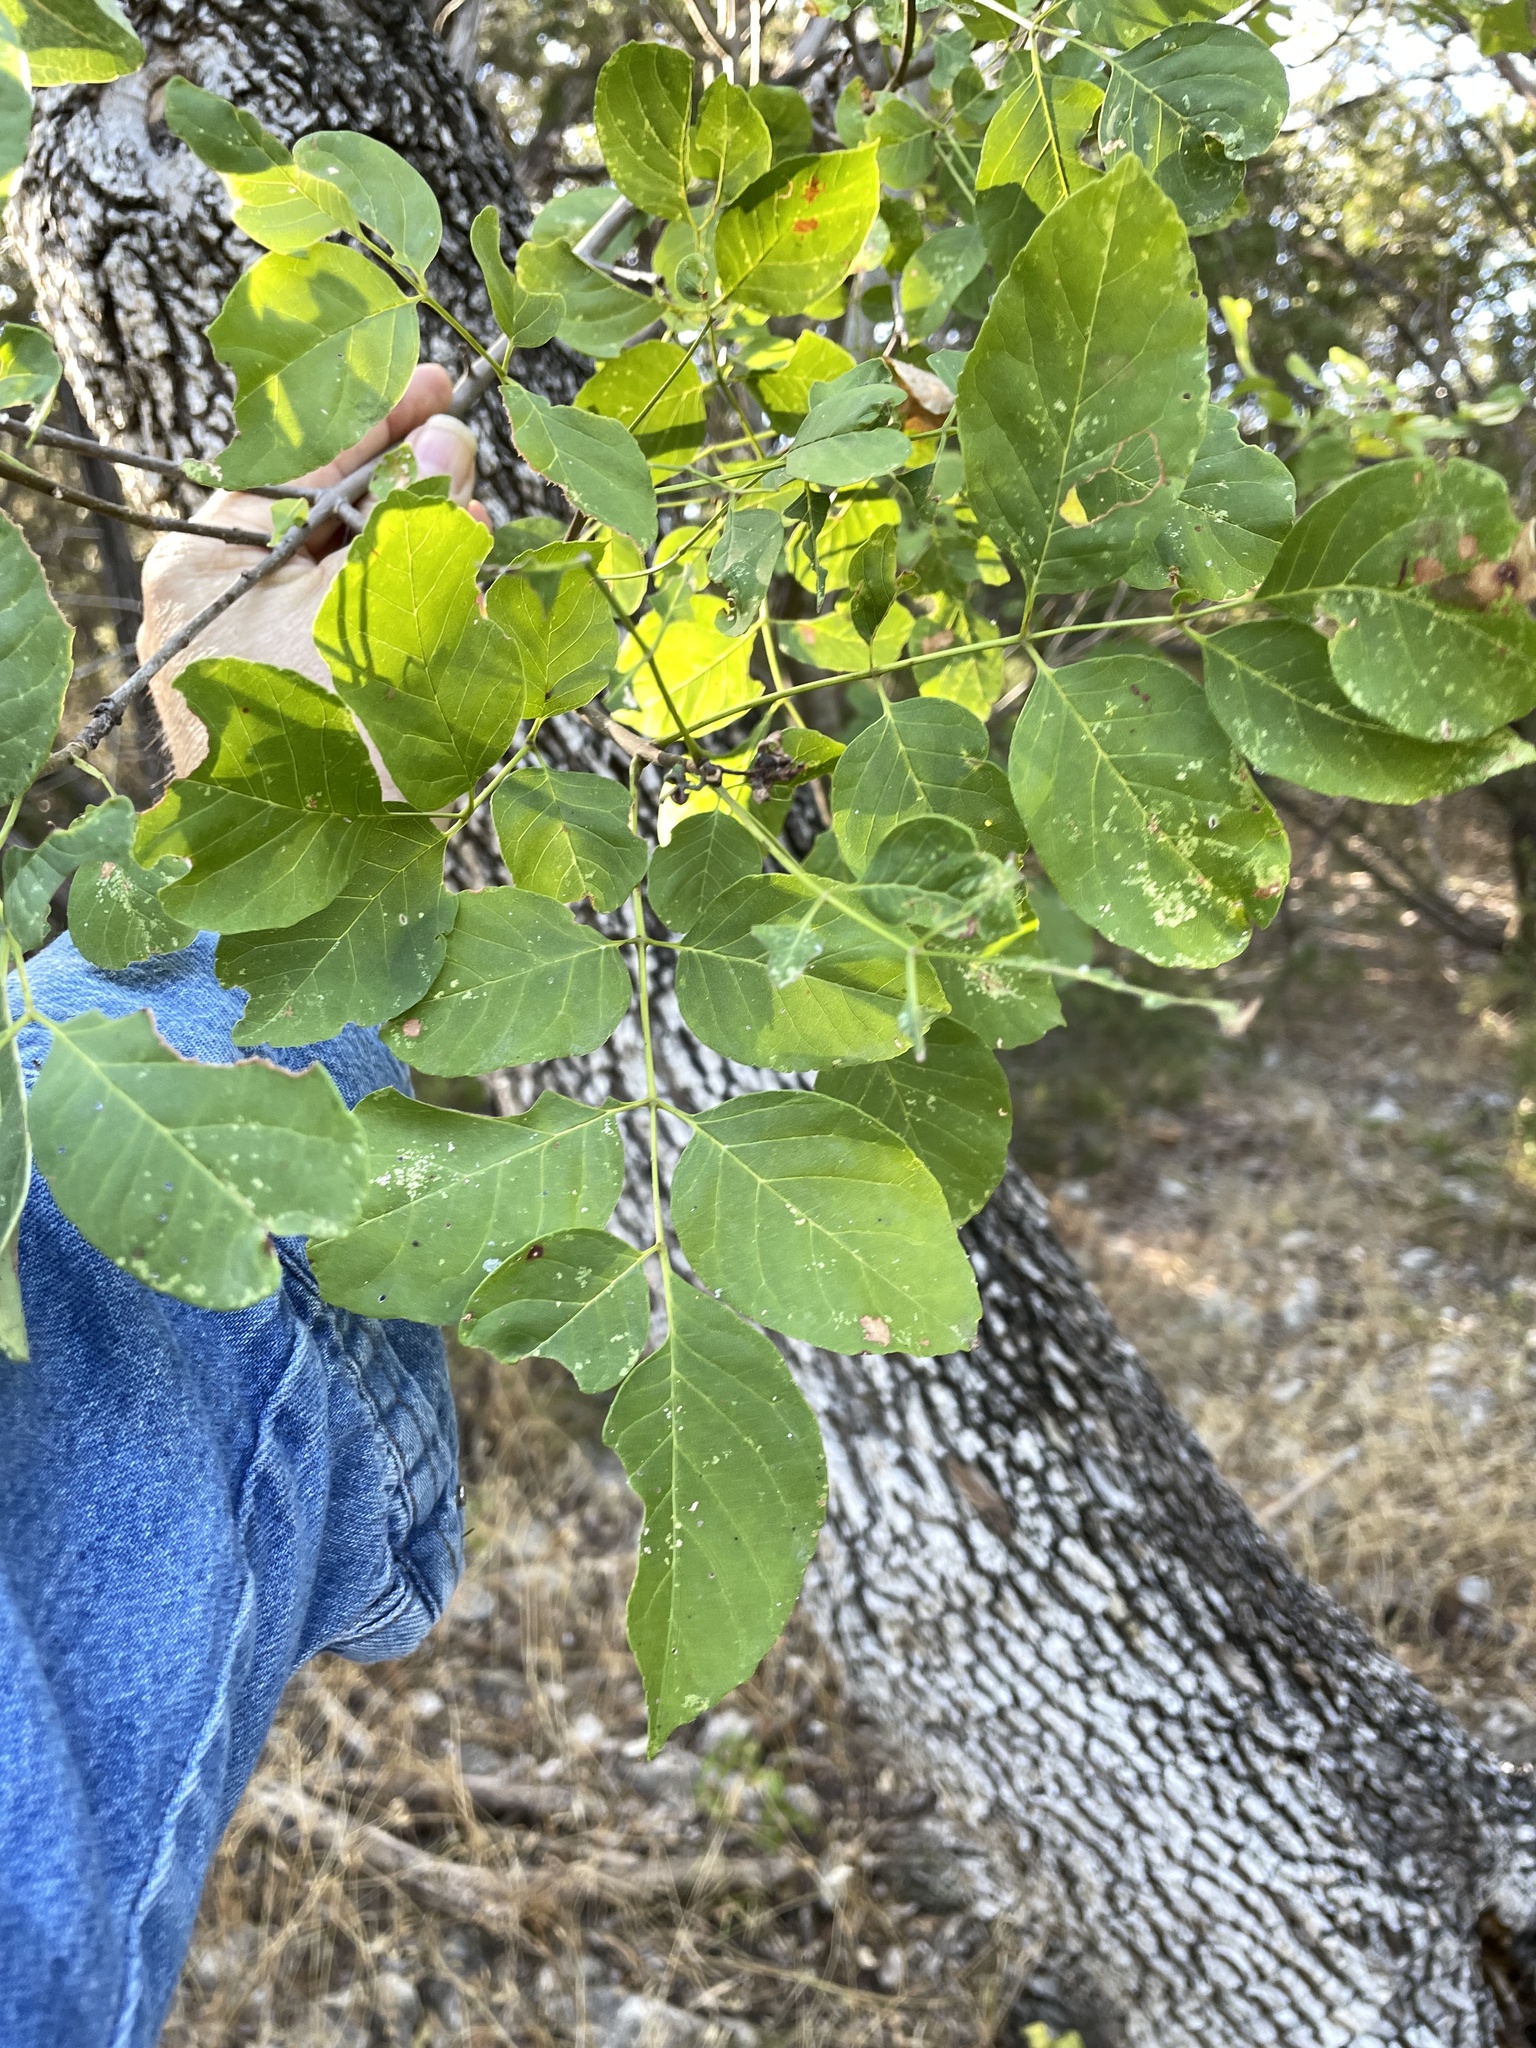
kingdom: Plantae
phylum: Tracheophyta
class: Magnoliopsida
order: Lamiales
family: Oleaceae
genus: Fraxinus
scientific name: Fraxinus albicans
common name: Texas ash
